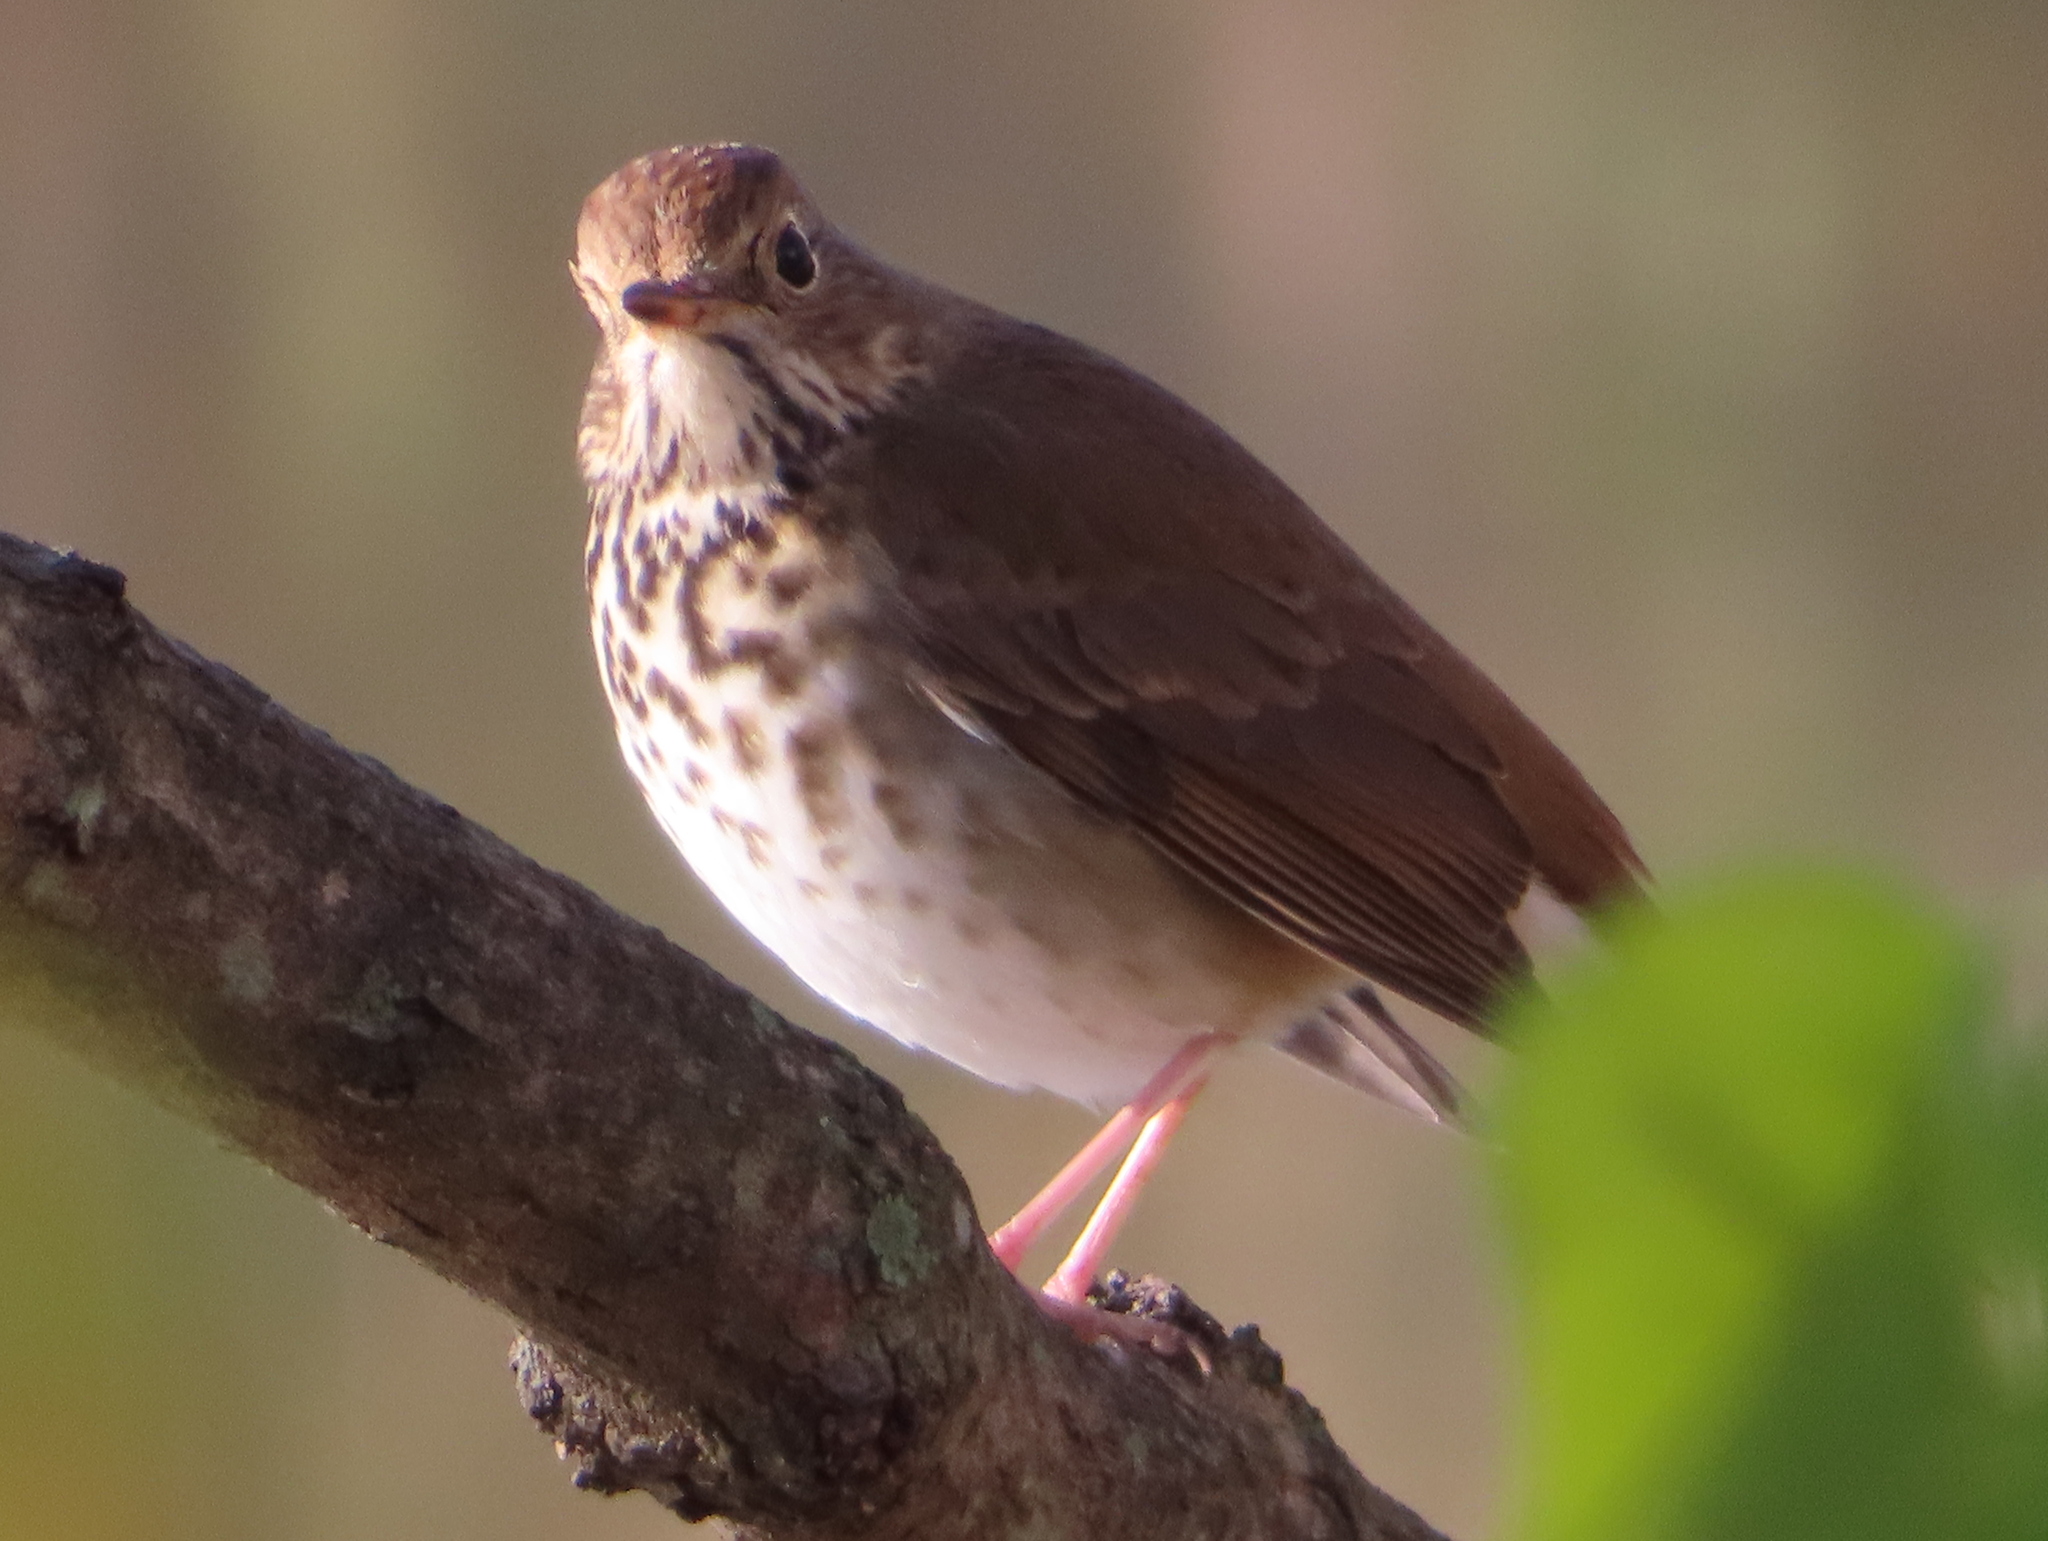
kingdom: Animalia
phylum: Chordata
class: Aves
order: Passeriformes
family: Turdidae
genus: Catharus
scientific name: Catharus guttatus
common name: Hermit thrush
